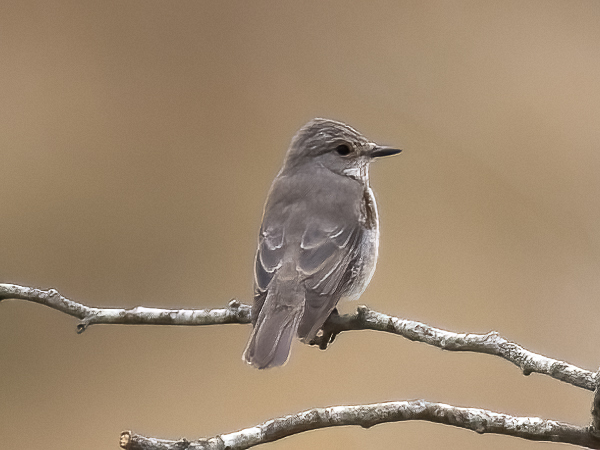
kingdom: Animalia
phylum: Chordata
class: Aves
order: Passeriformes
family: Muscicapidae
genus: Muscicapa
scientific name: Muscicapa striata
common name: Spotted flycatcher
